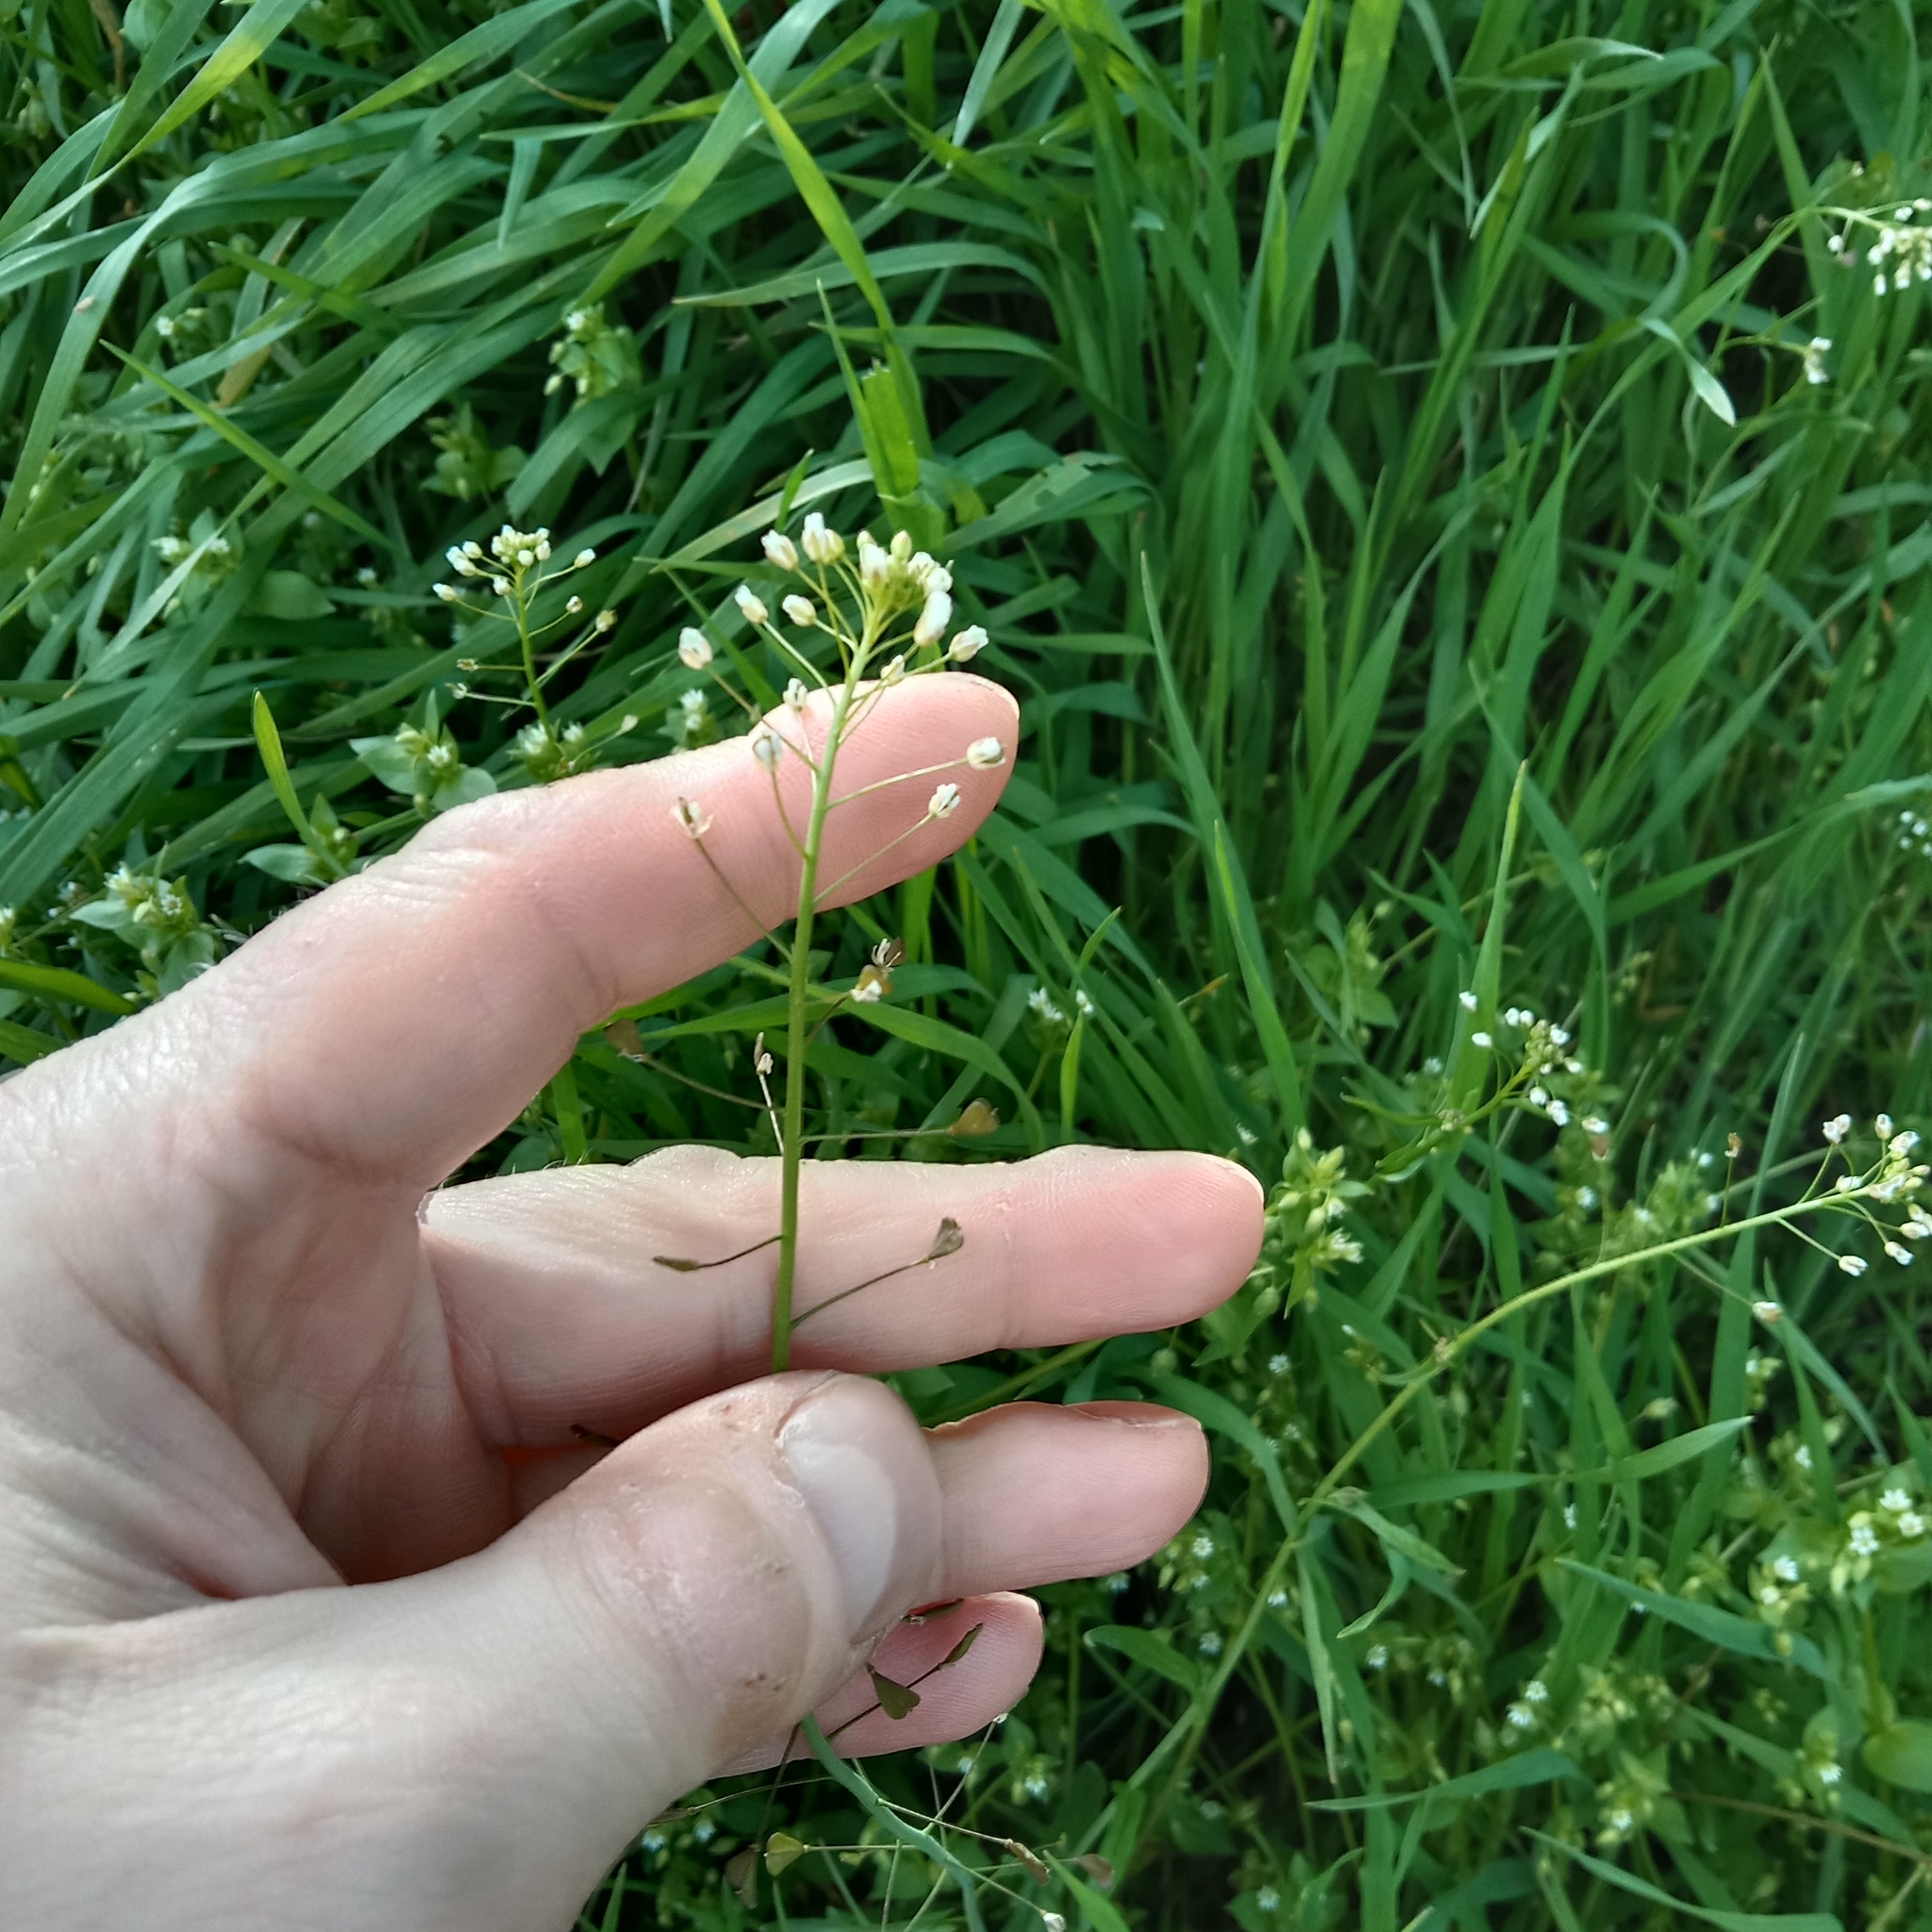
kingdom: Plantae
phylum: Tracheophyta
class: Magnoliopsida
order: Brassicales
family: Brassicaceae
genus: Capsella
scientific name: Capsella bursa-pastoris
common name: Shepherd's purse
